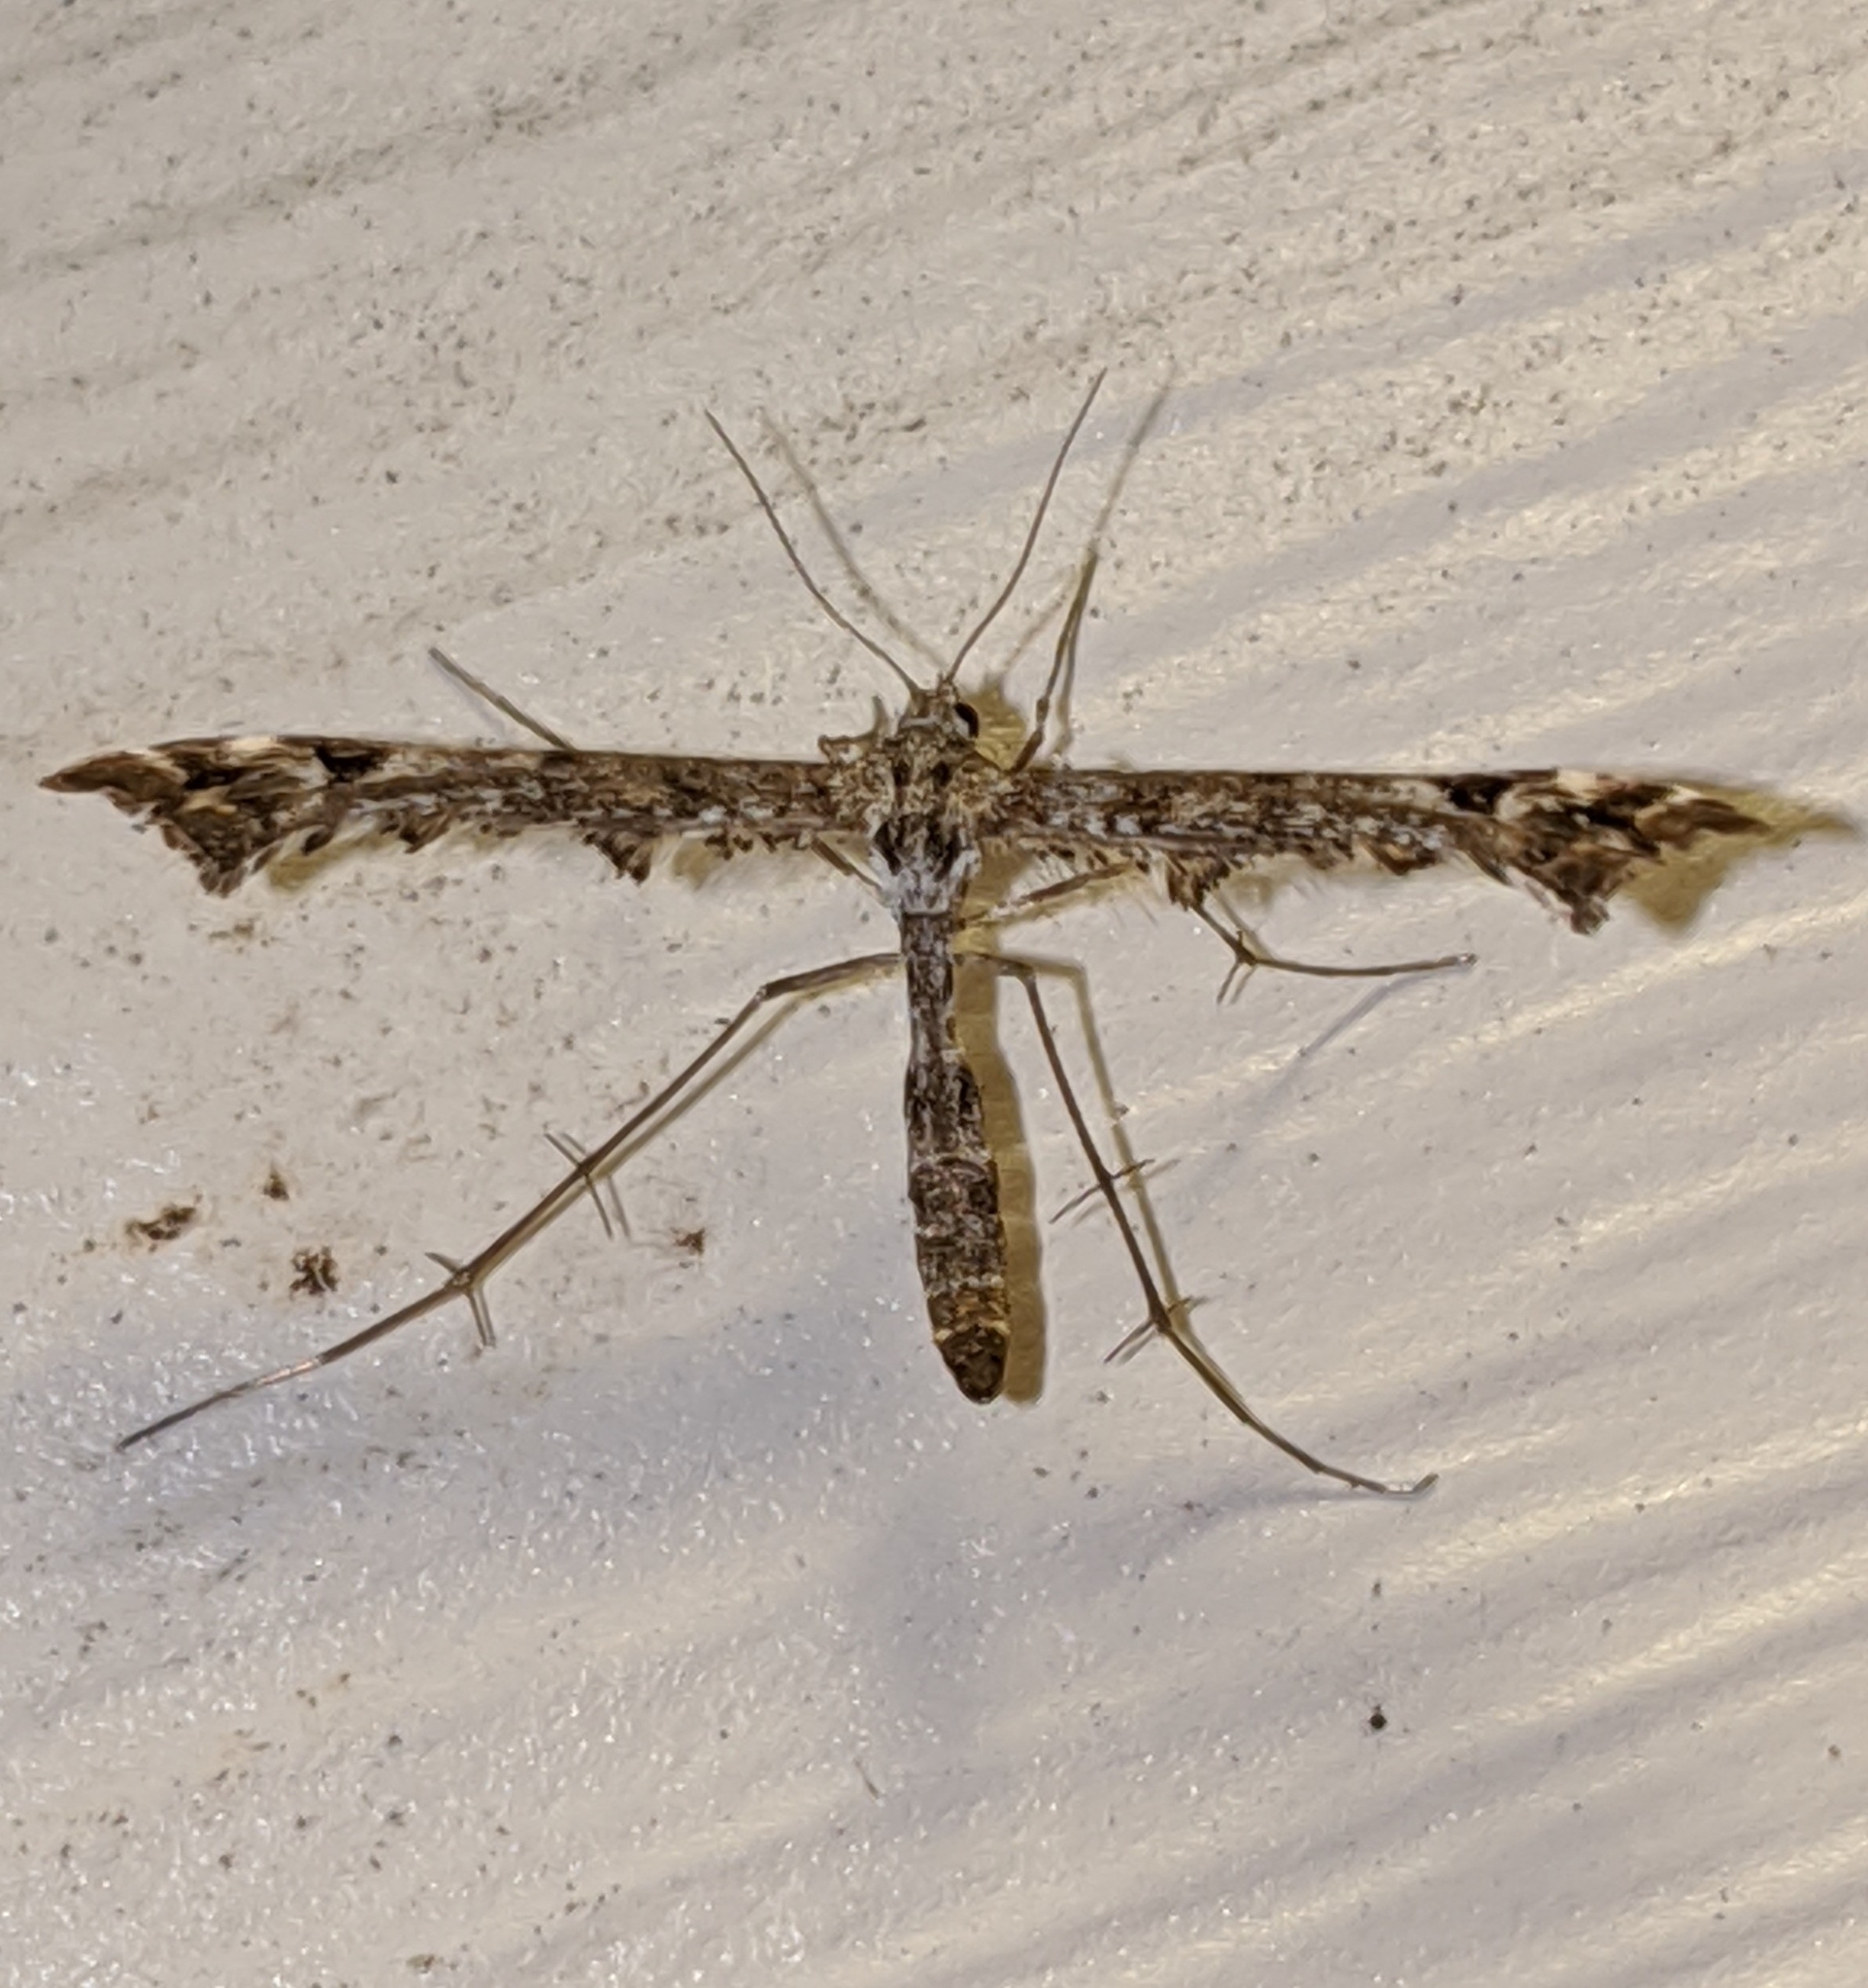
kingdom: Animalia
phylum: Arthropoda
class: Insecta
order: Lepidoptera
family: Pterophoridae
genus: Amblyptilia
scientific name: Amblyptilia pica
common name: Geranium plume moth
